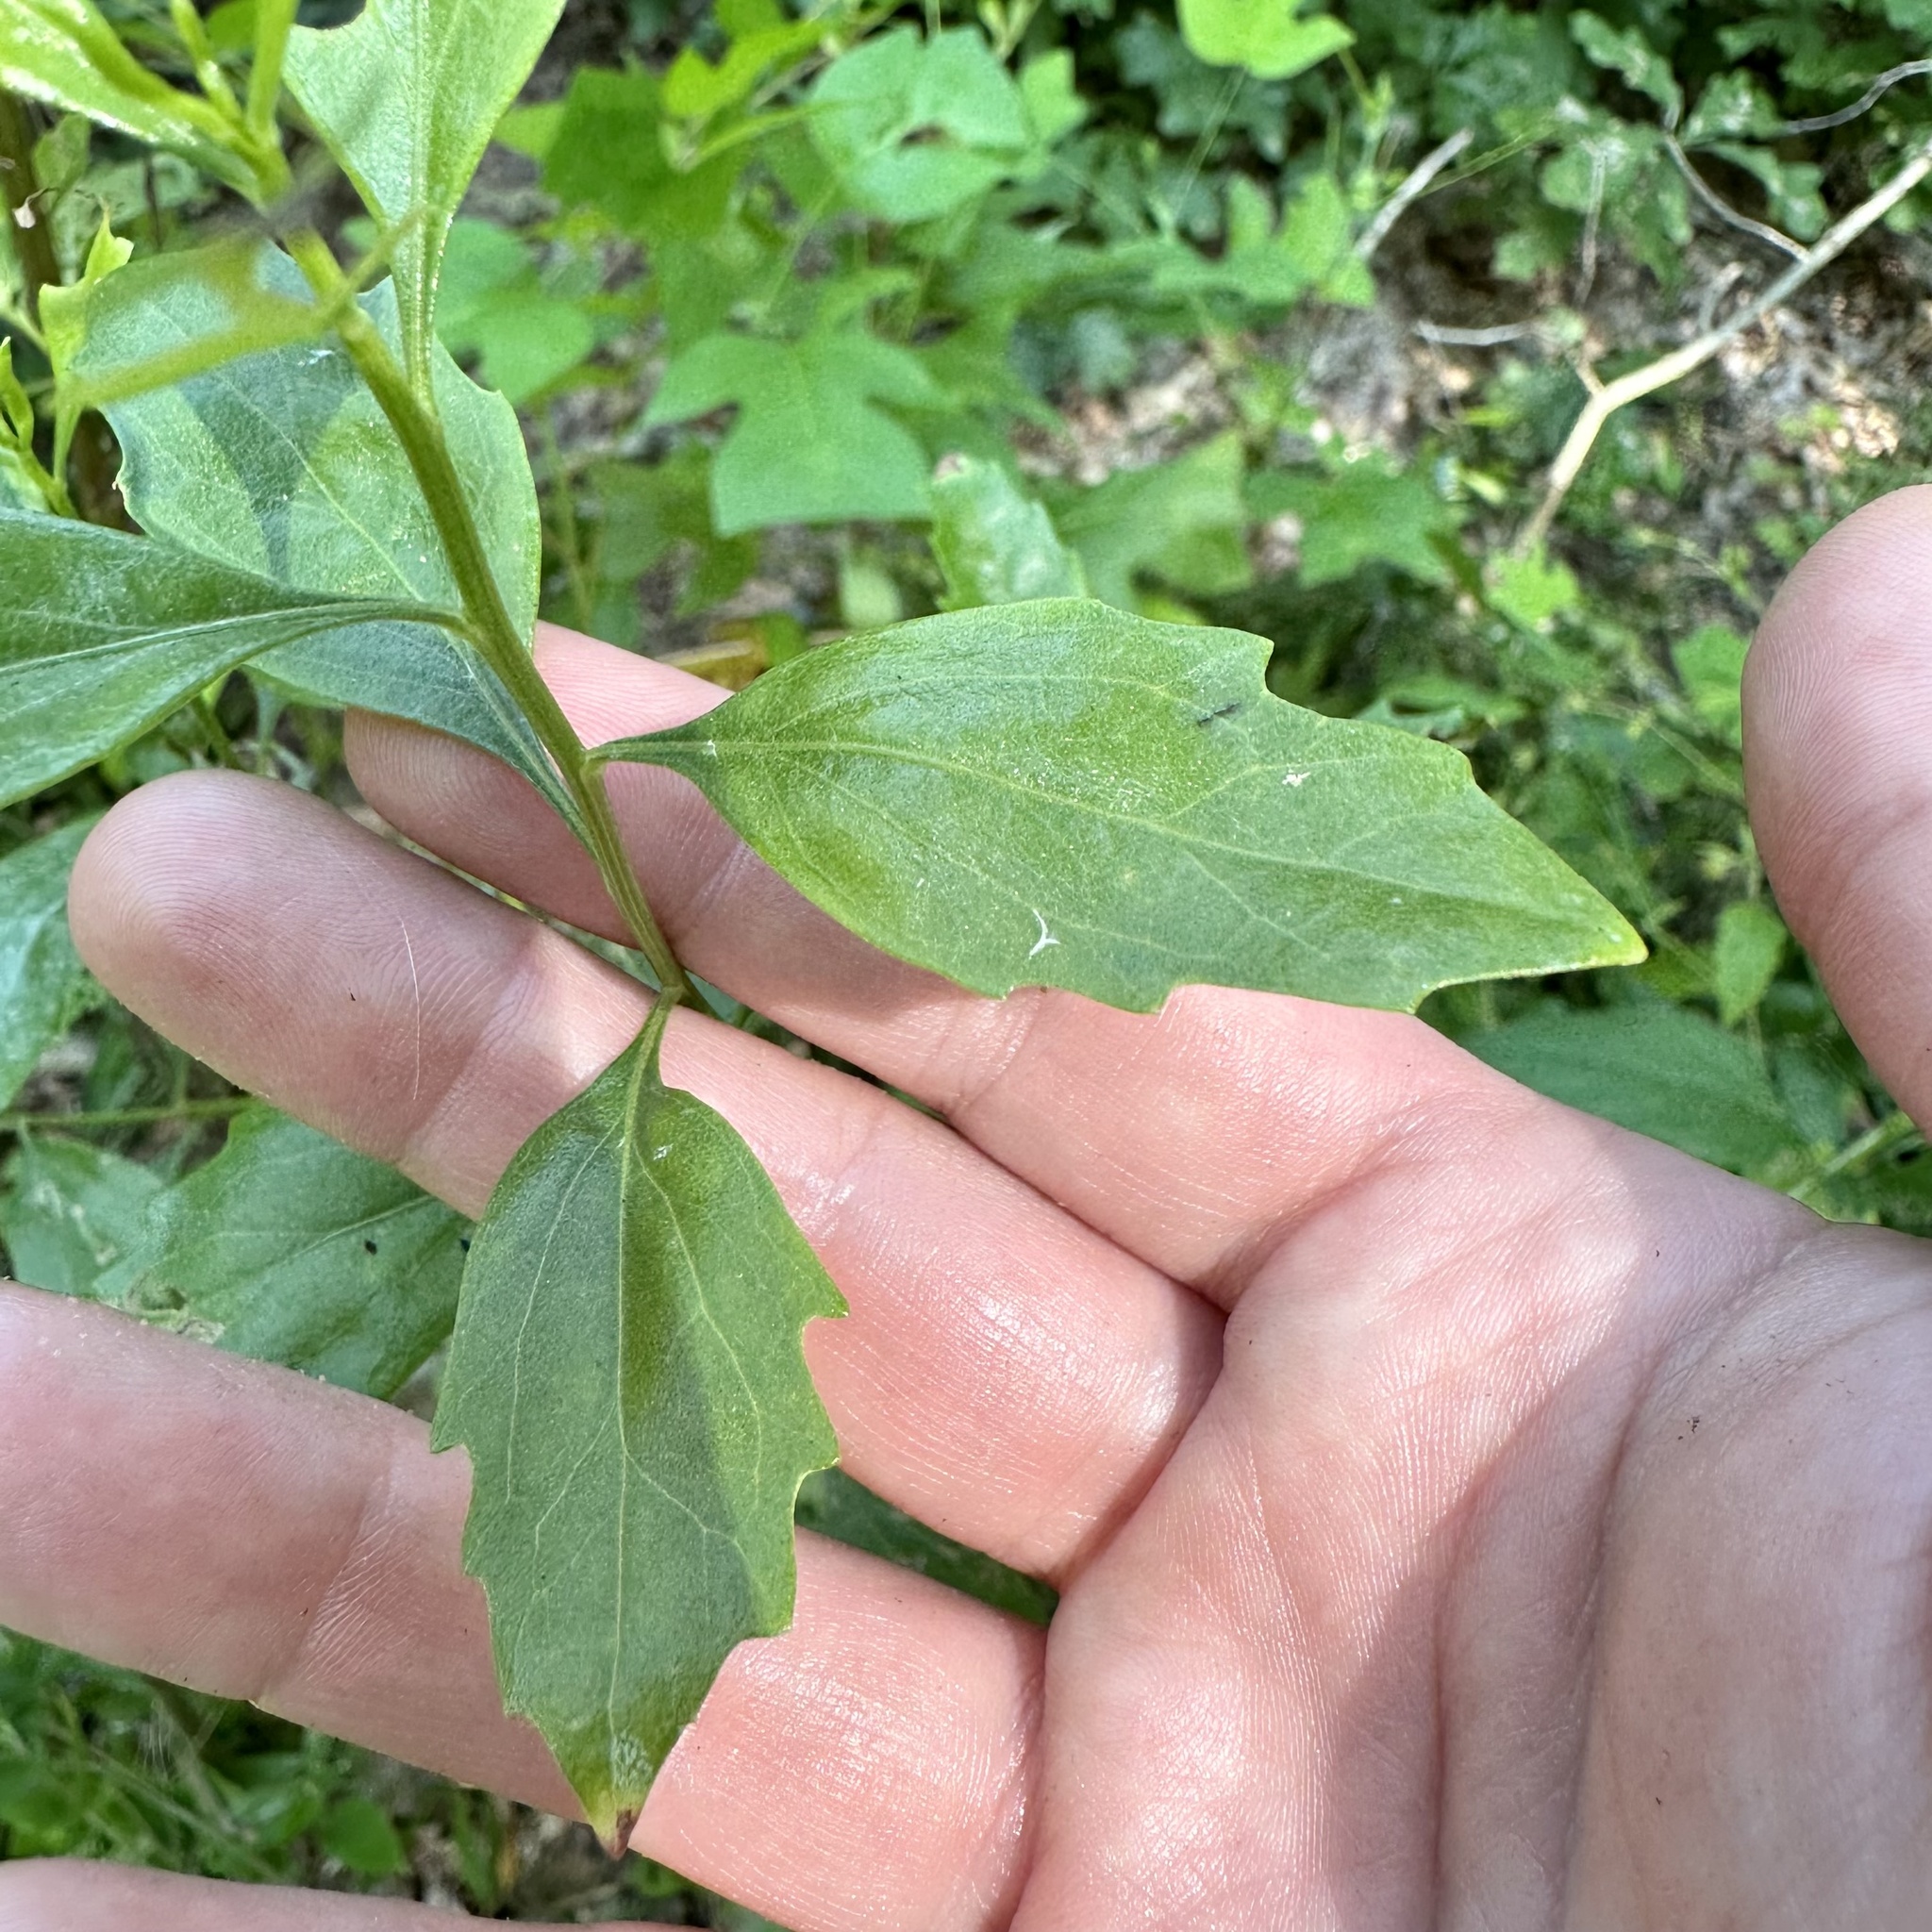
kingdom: Plantae
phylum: Tracheophyta
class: Magnoliopsida
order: Asterales
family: Asteraceae
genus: Baccharis
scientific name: Baccharis halimifolia
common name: Eastern baccharis
